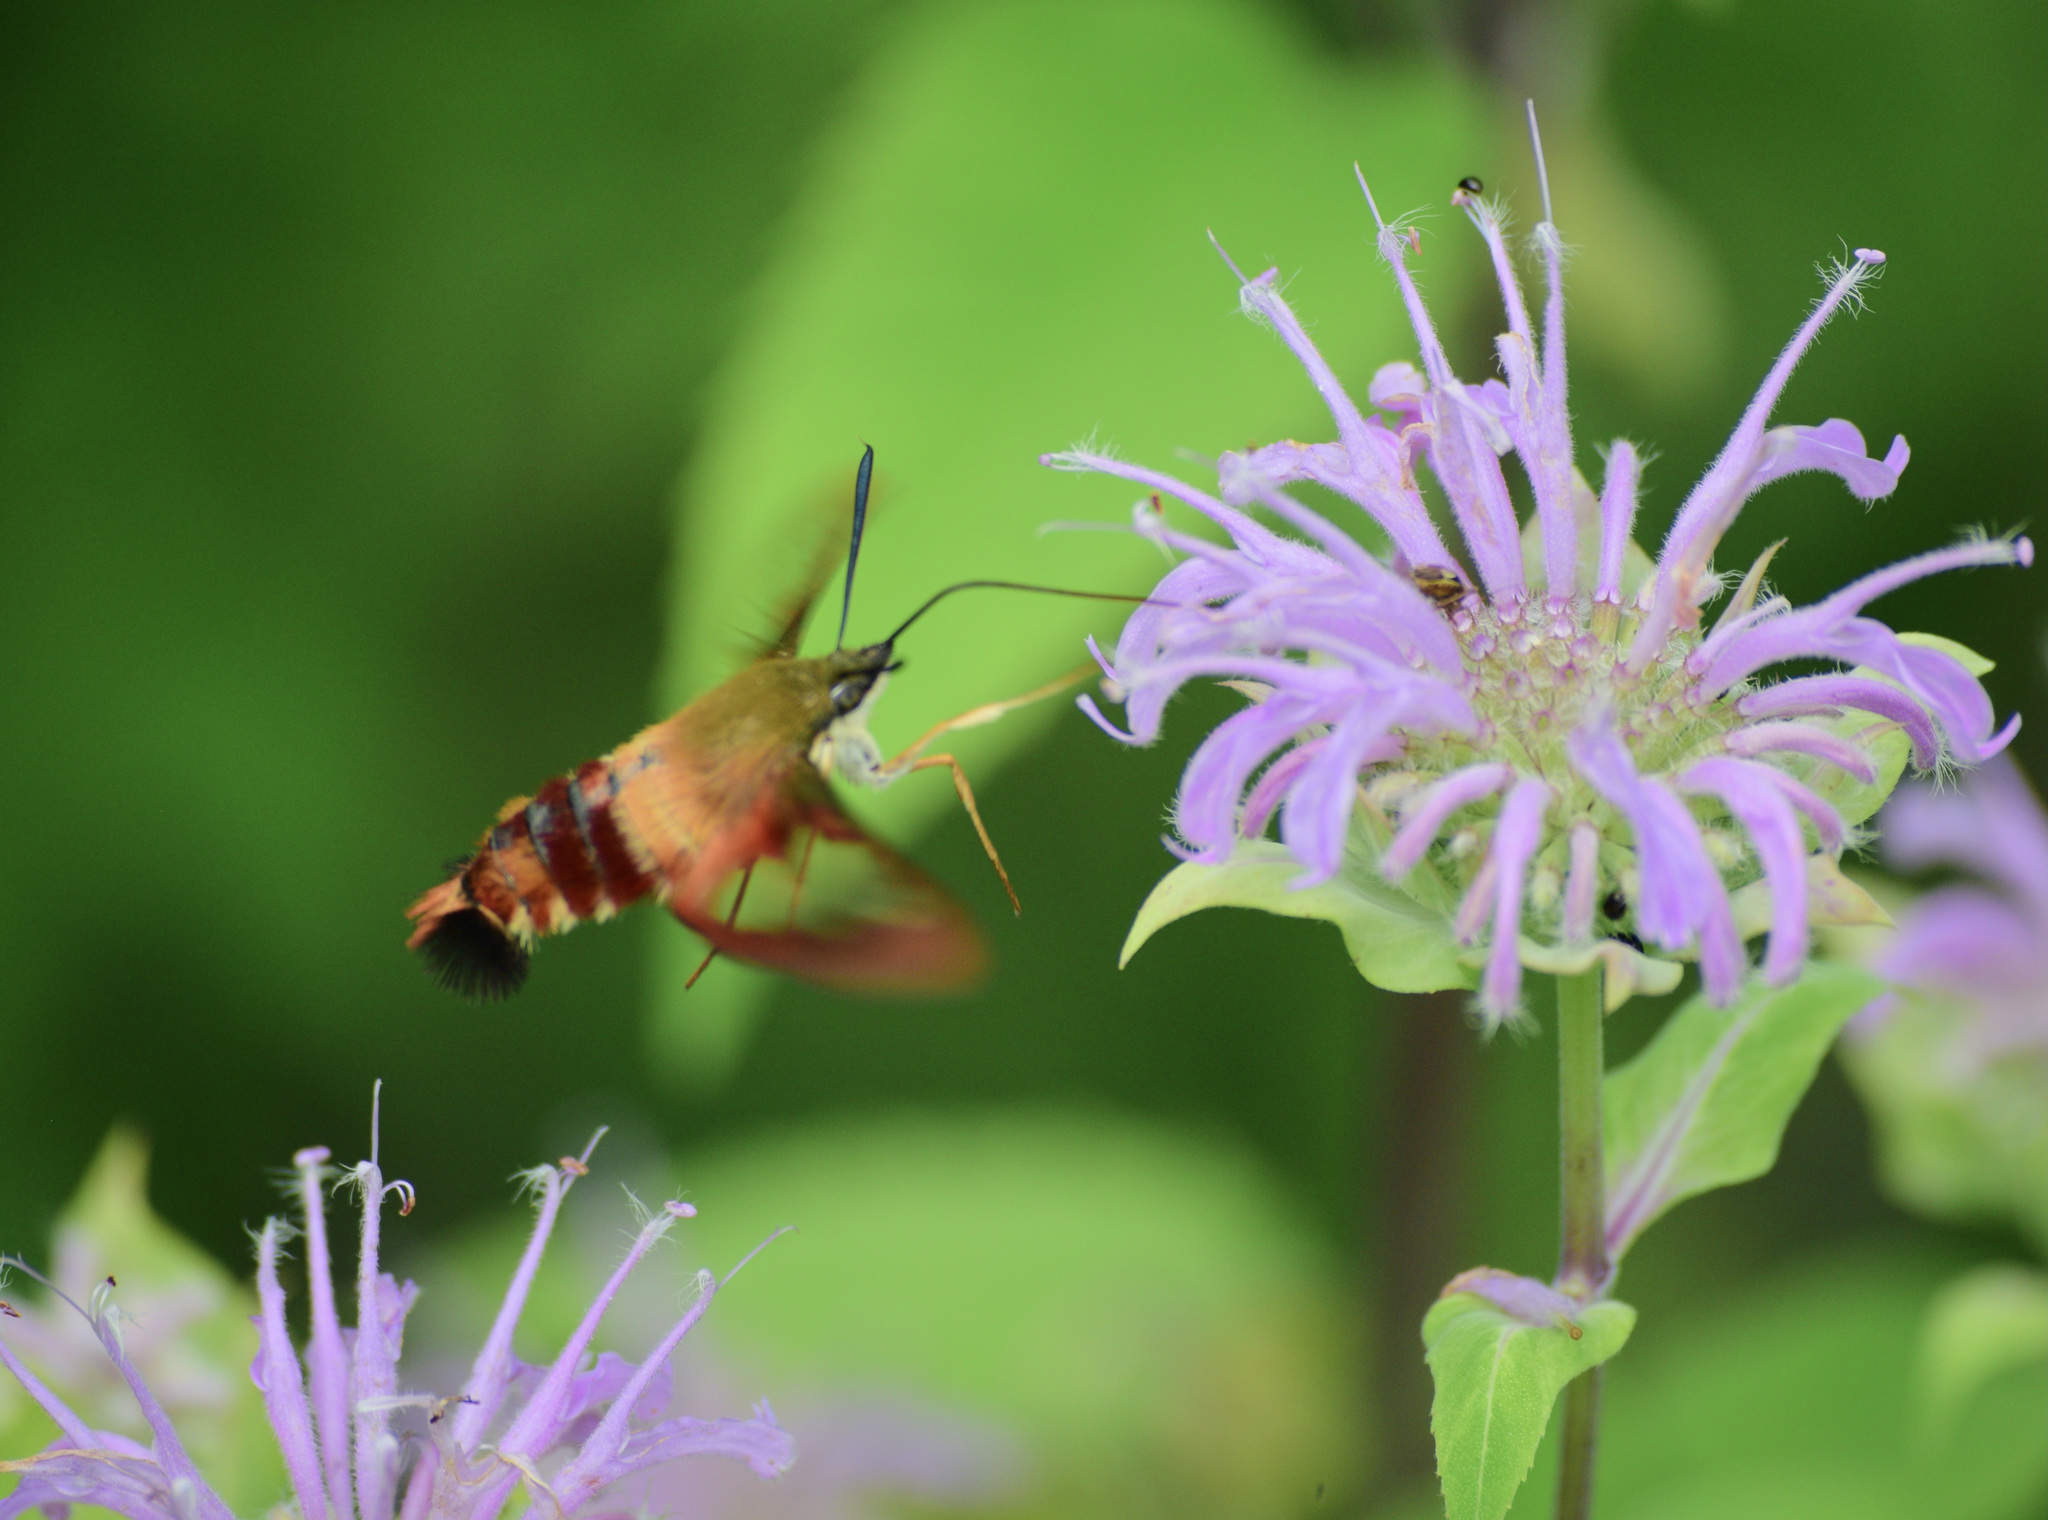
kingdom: Animalia
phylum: Arthropoda
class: Insecta
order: Lepidoptera
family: Sphingidae
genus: Hemaris
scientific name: Hemaris thysbe
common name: Common clear-wing
